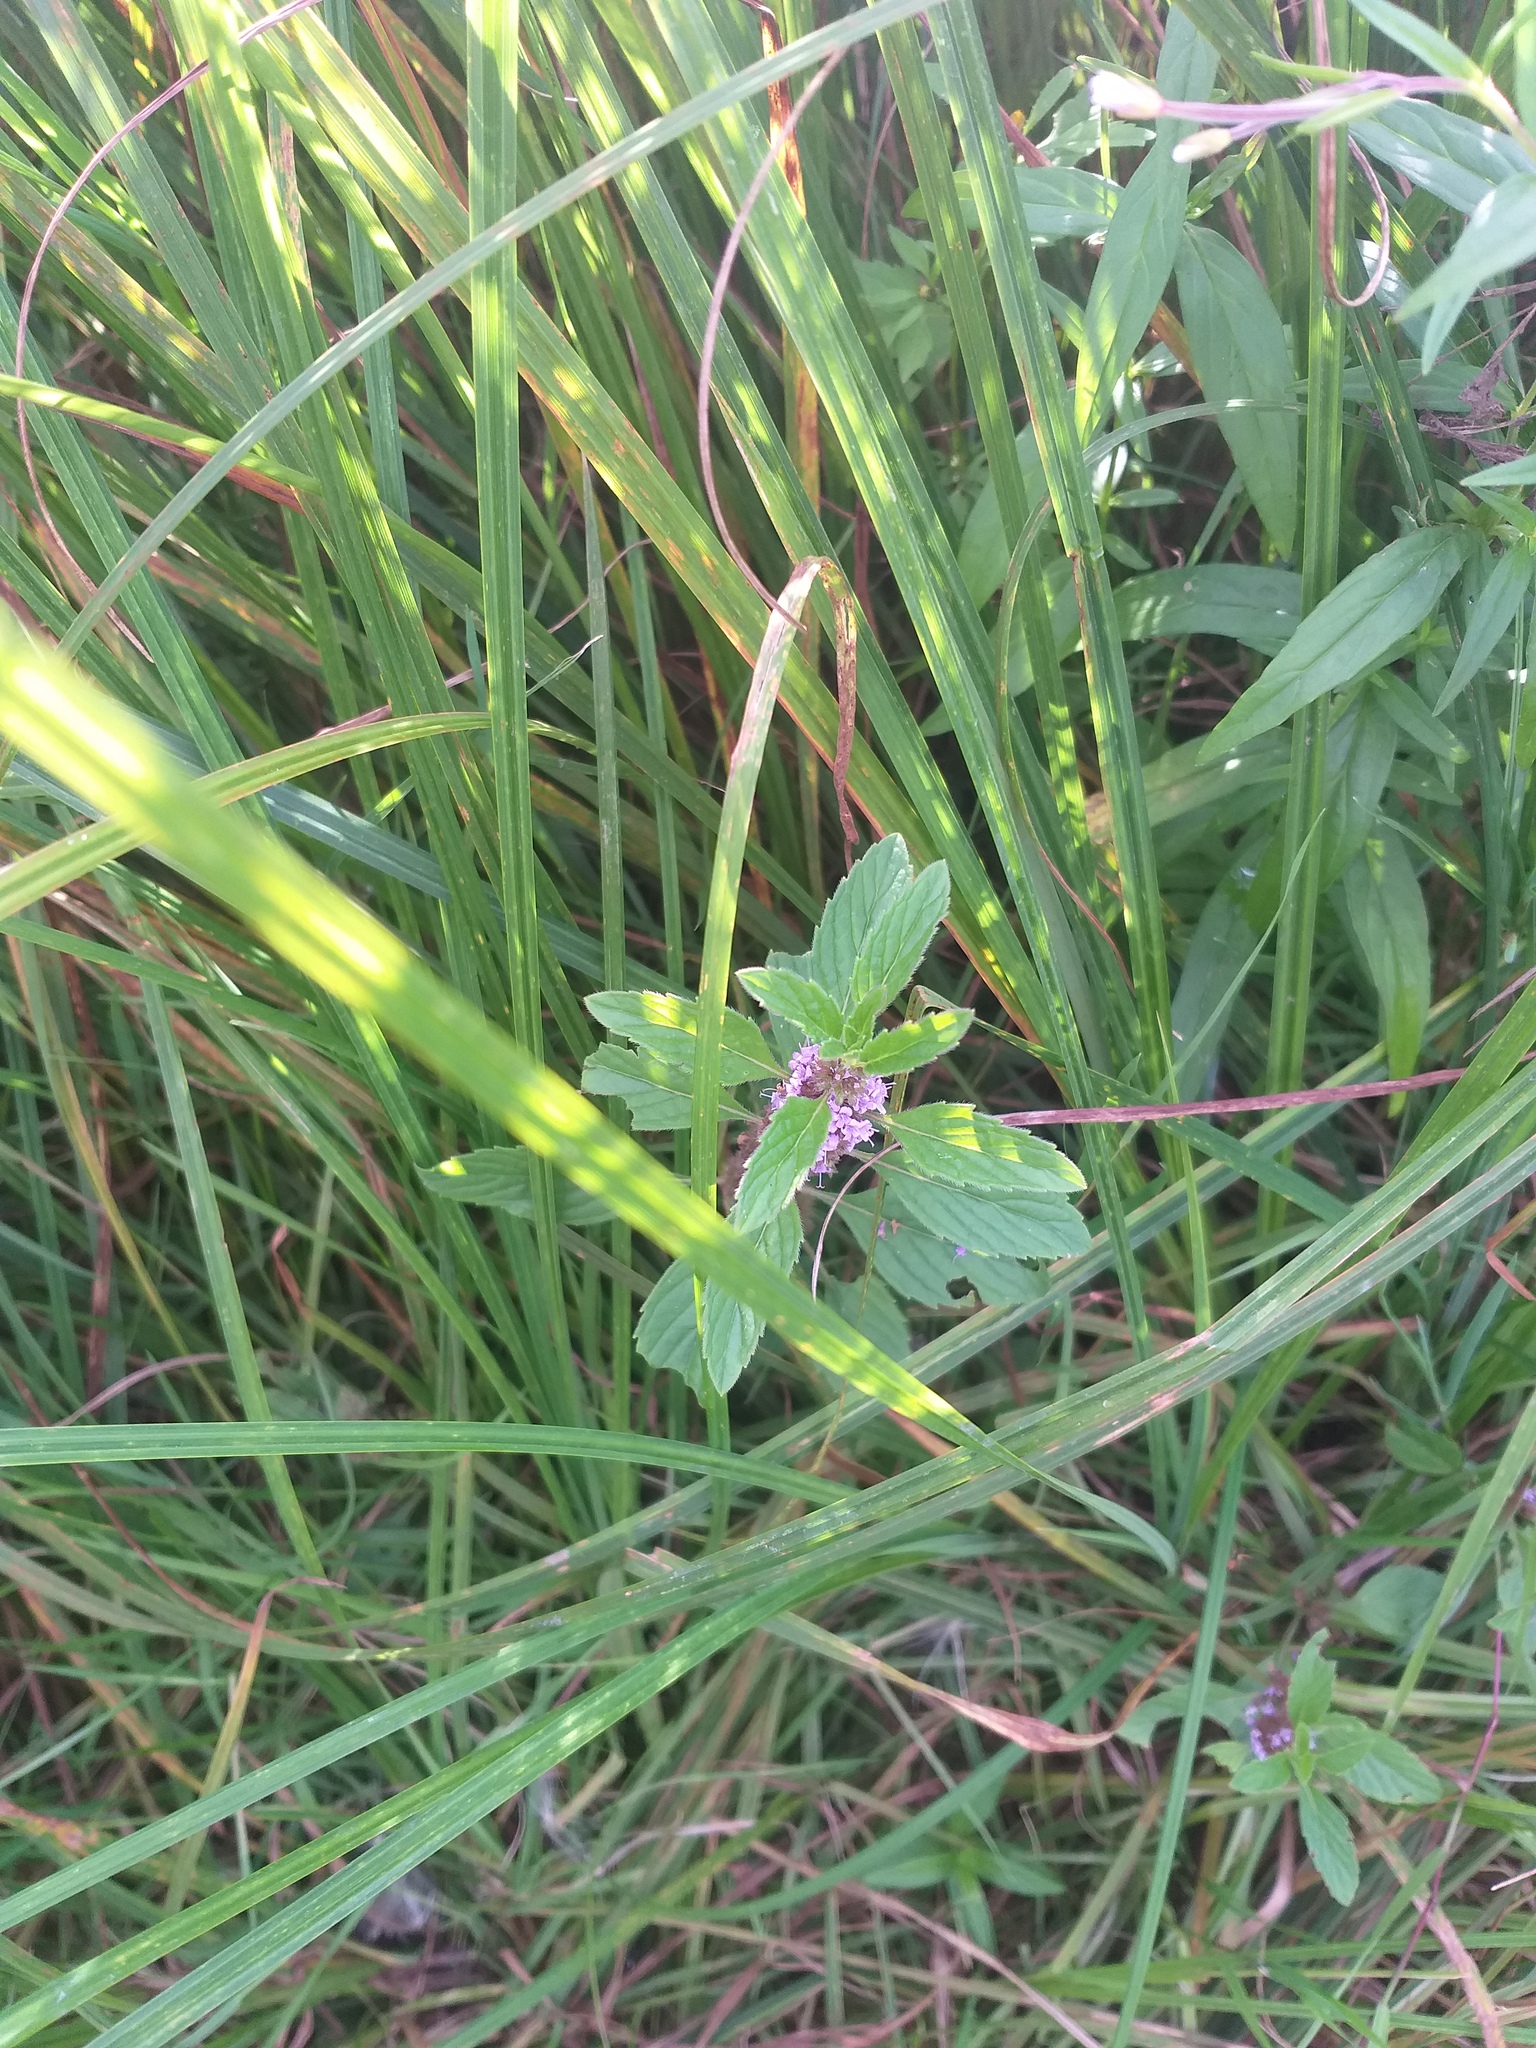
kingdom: Plantae
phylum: Tracheophyta
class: Magnoliopsida
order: Lamiales
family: Lamiaceae
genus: Mentha
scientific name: Mentha arvensis
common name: Corn mint
